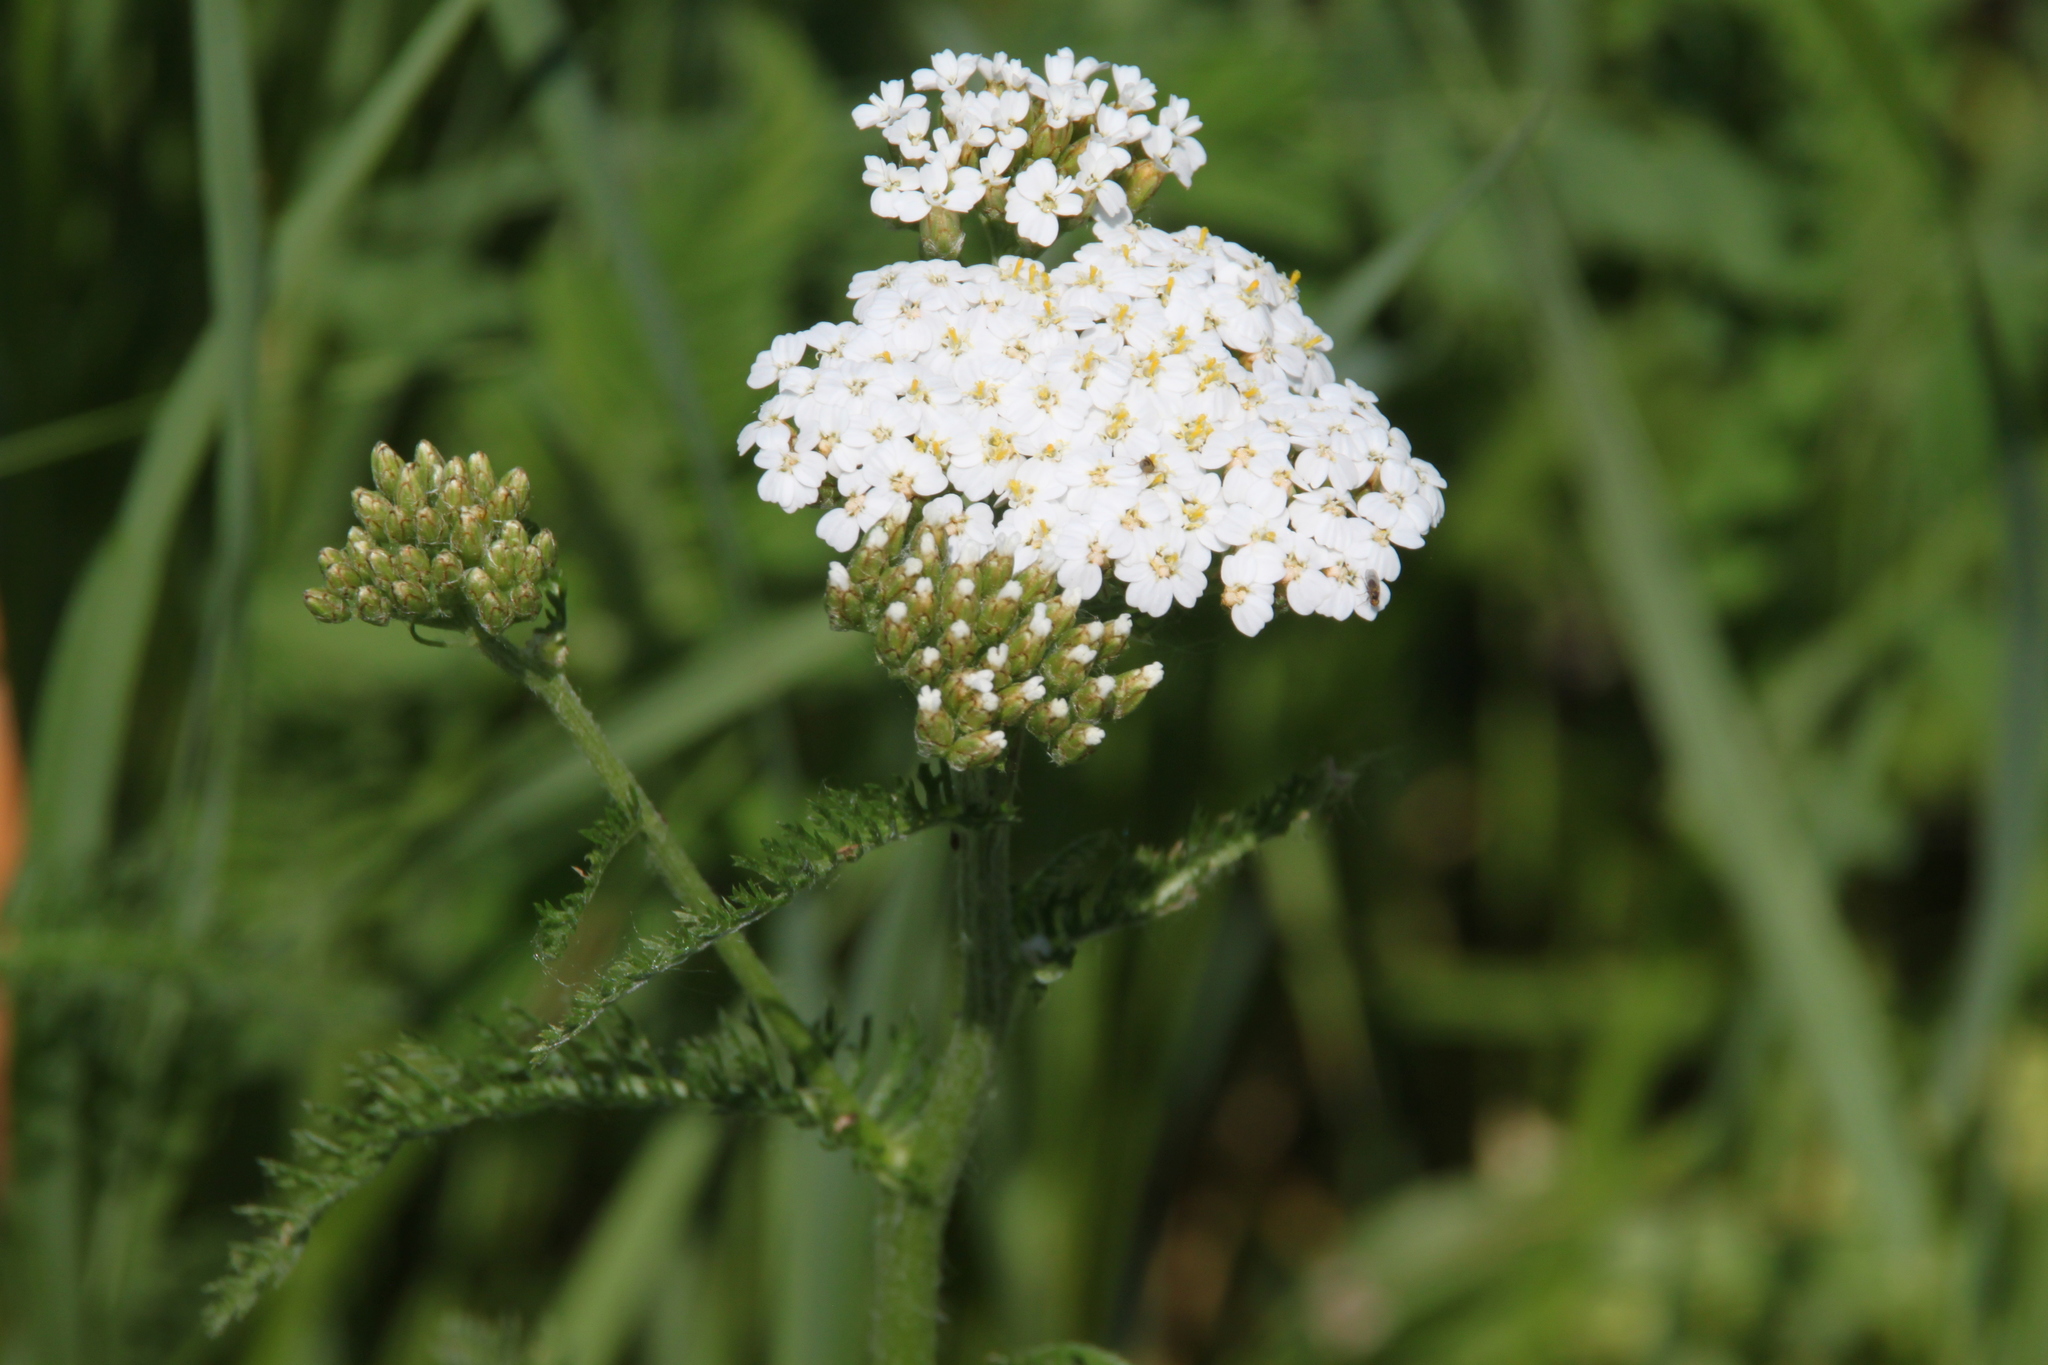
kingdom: Plantae
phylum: Tracheophyta
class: Magnoliopsida
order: Asterales
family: Asteraceae
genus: Achillea
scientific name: Achillea millefolium
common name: Yarrow
